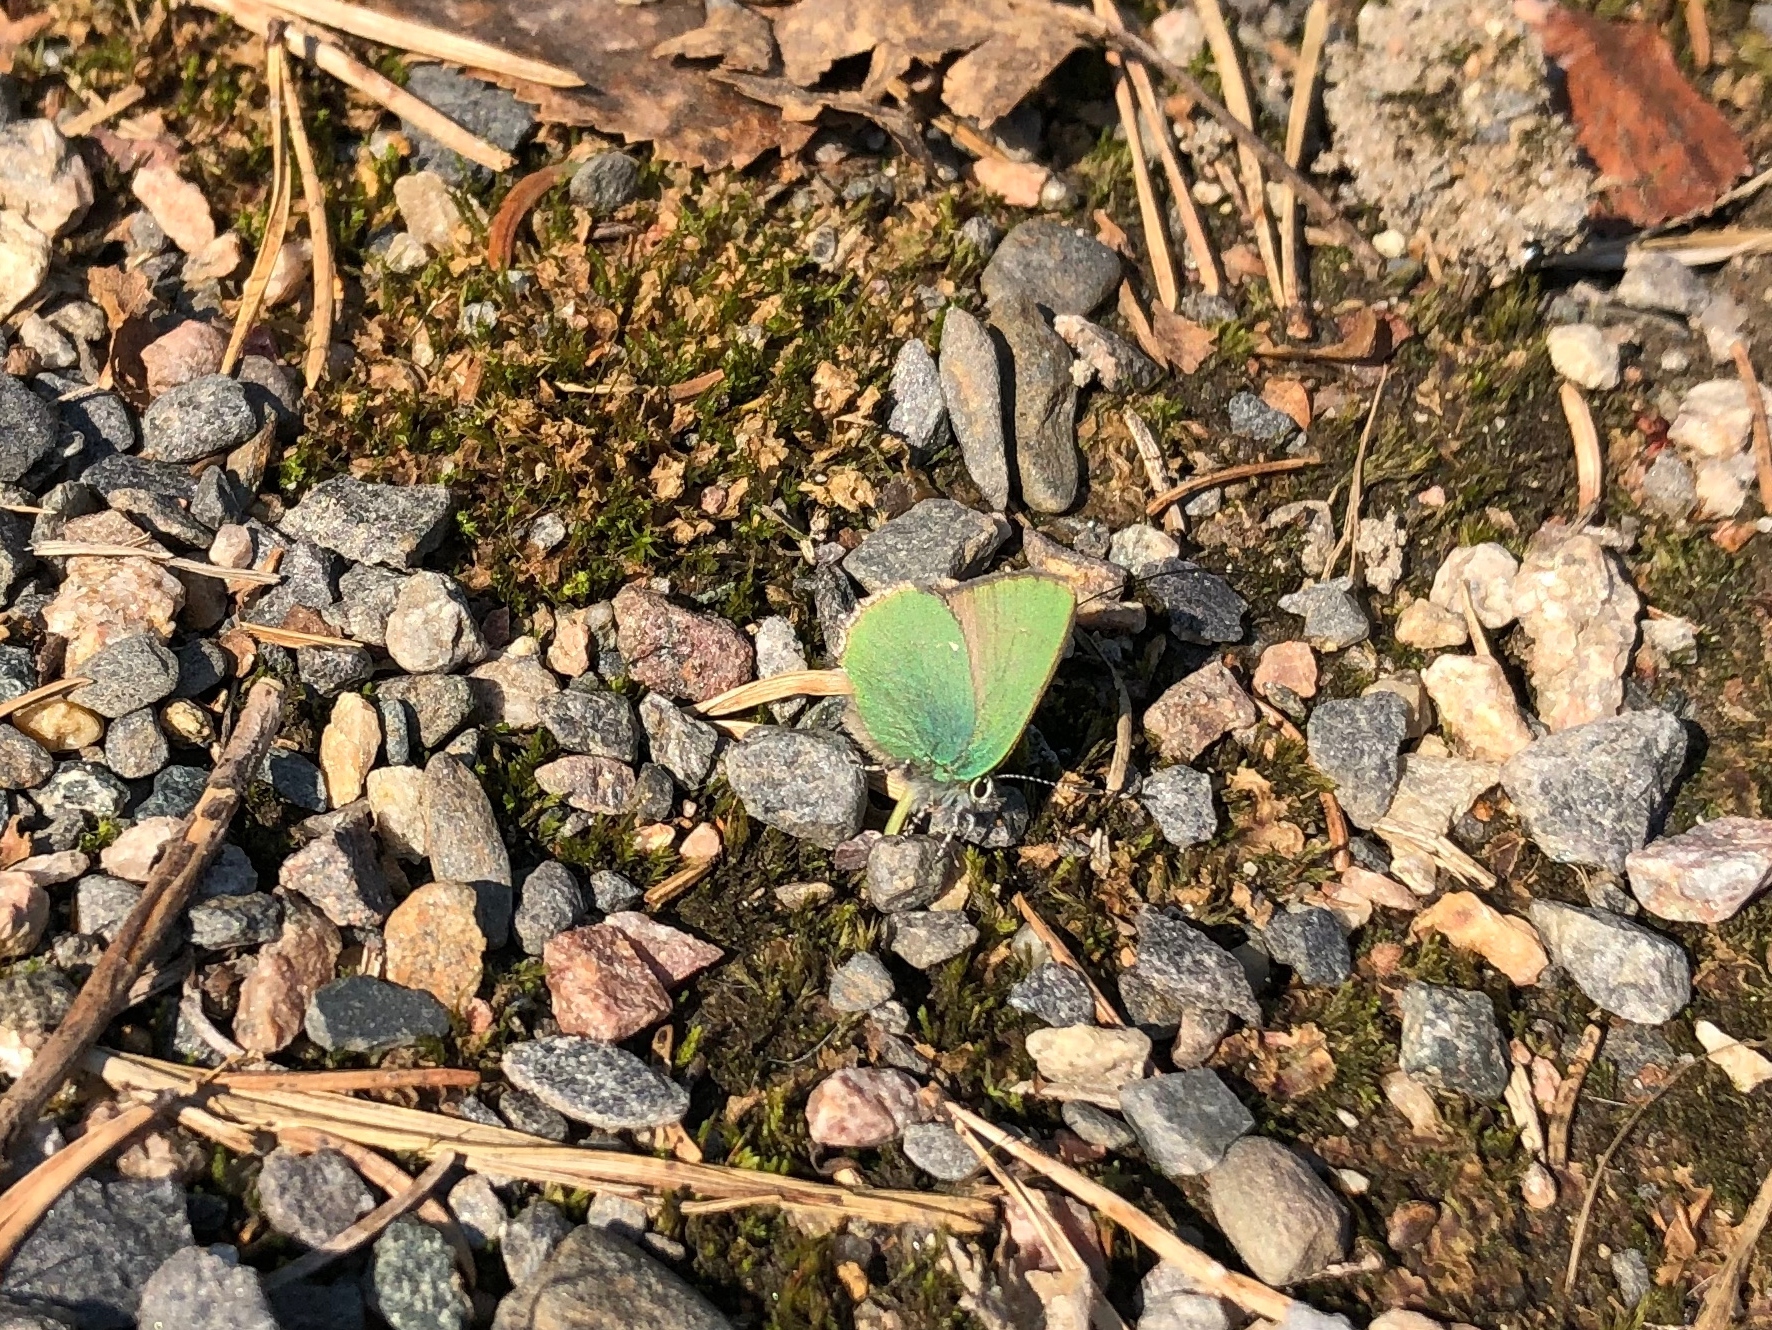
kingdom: Animalia
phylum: Arthropoda
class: Insecta
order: Lepidoptera
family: Lycaenidae
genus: Callophrys
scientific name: Callophrys rubi
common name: Green hairstreak
